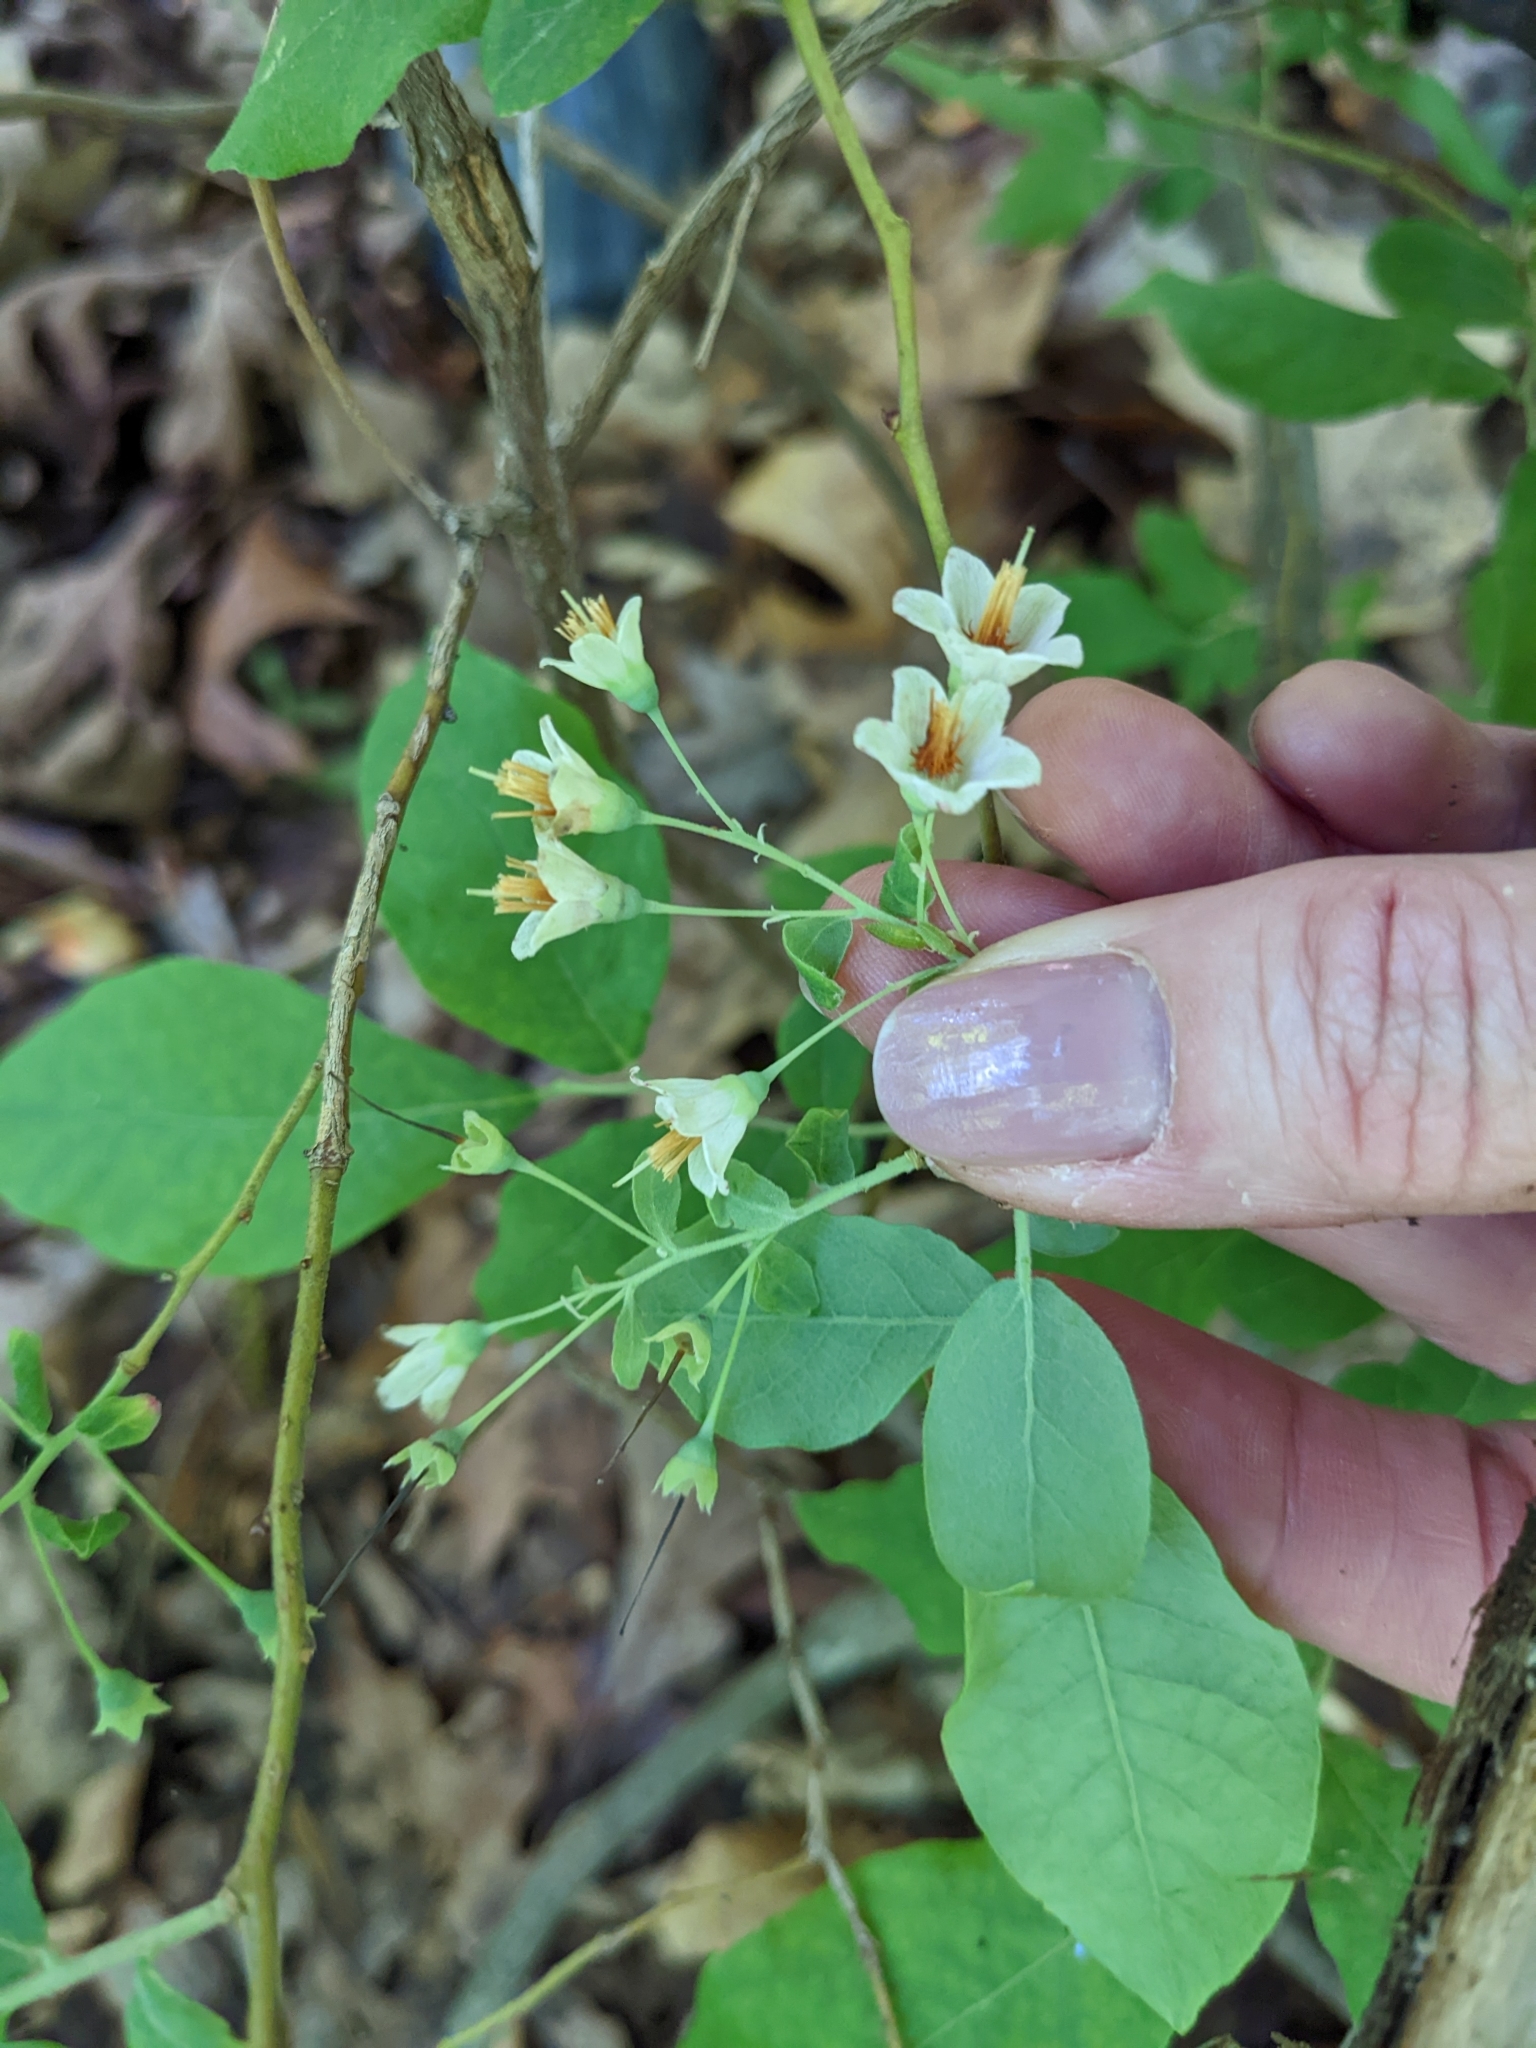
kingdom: Plantae
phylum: Tracheophyta
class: Magnoliopsida
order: Ericales
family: Ericaceae
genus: Vaccinium
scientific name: Vaccinium stamineum
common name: Deerberry
